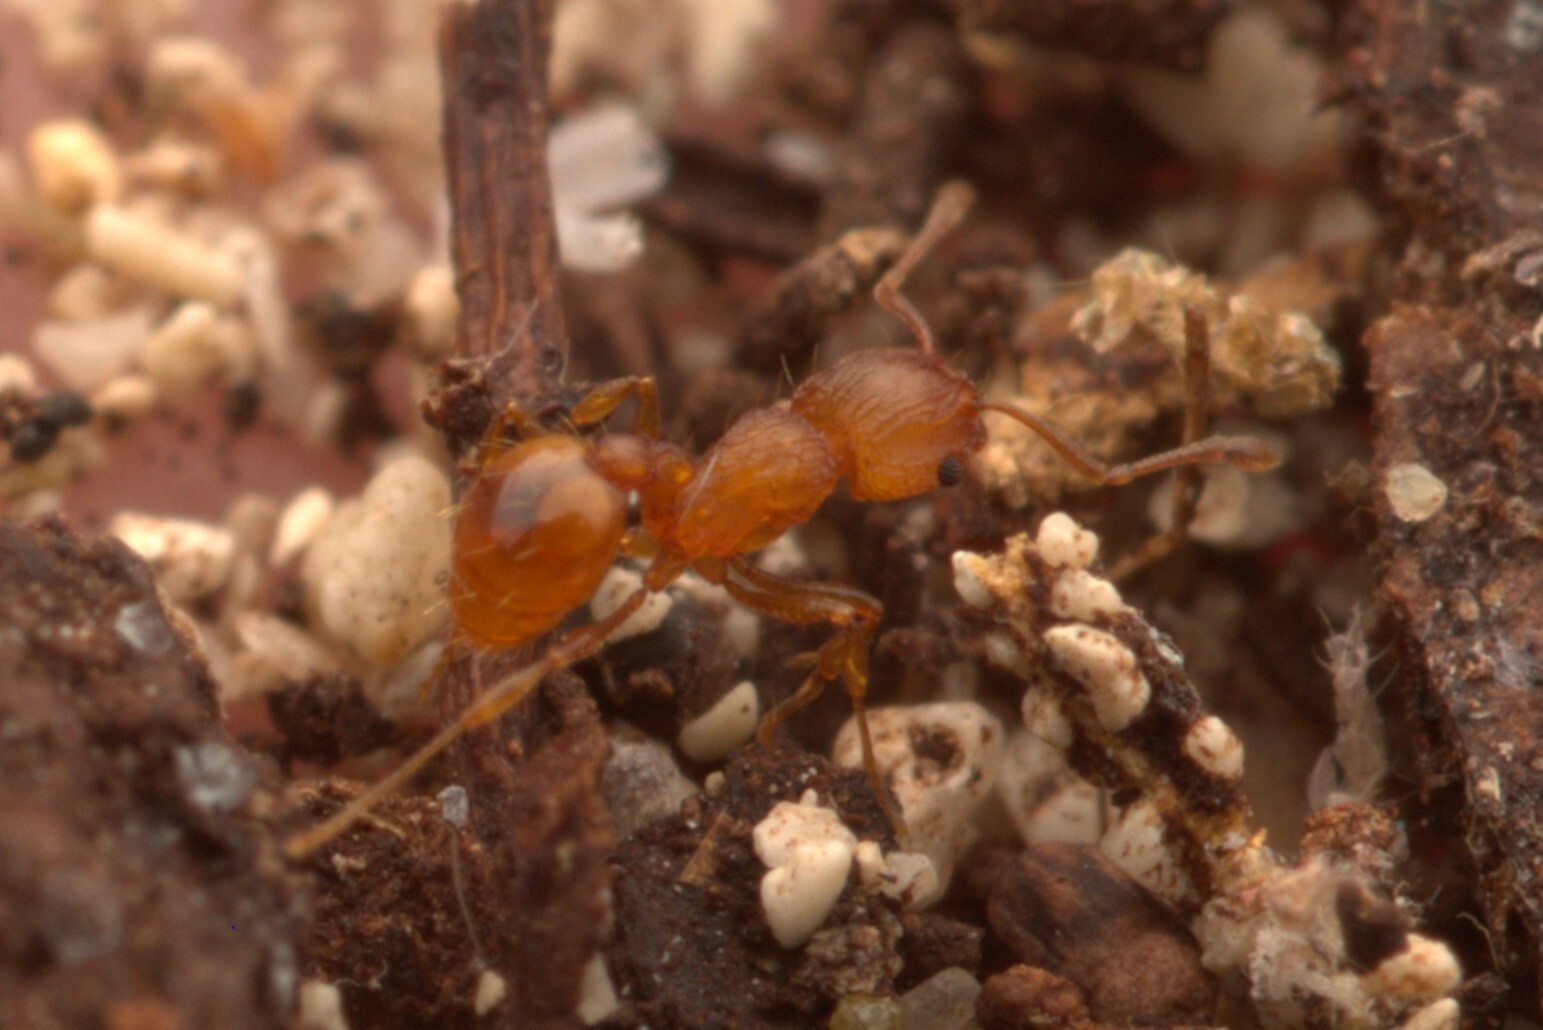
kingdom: Animalia
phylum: Arthropoda
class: Insecta
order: Hymenoptera
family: Formicidae
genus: Wasmannia
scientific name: Wasmannia auropunctata
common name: Little fire ant
